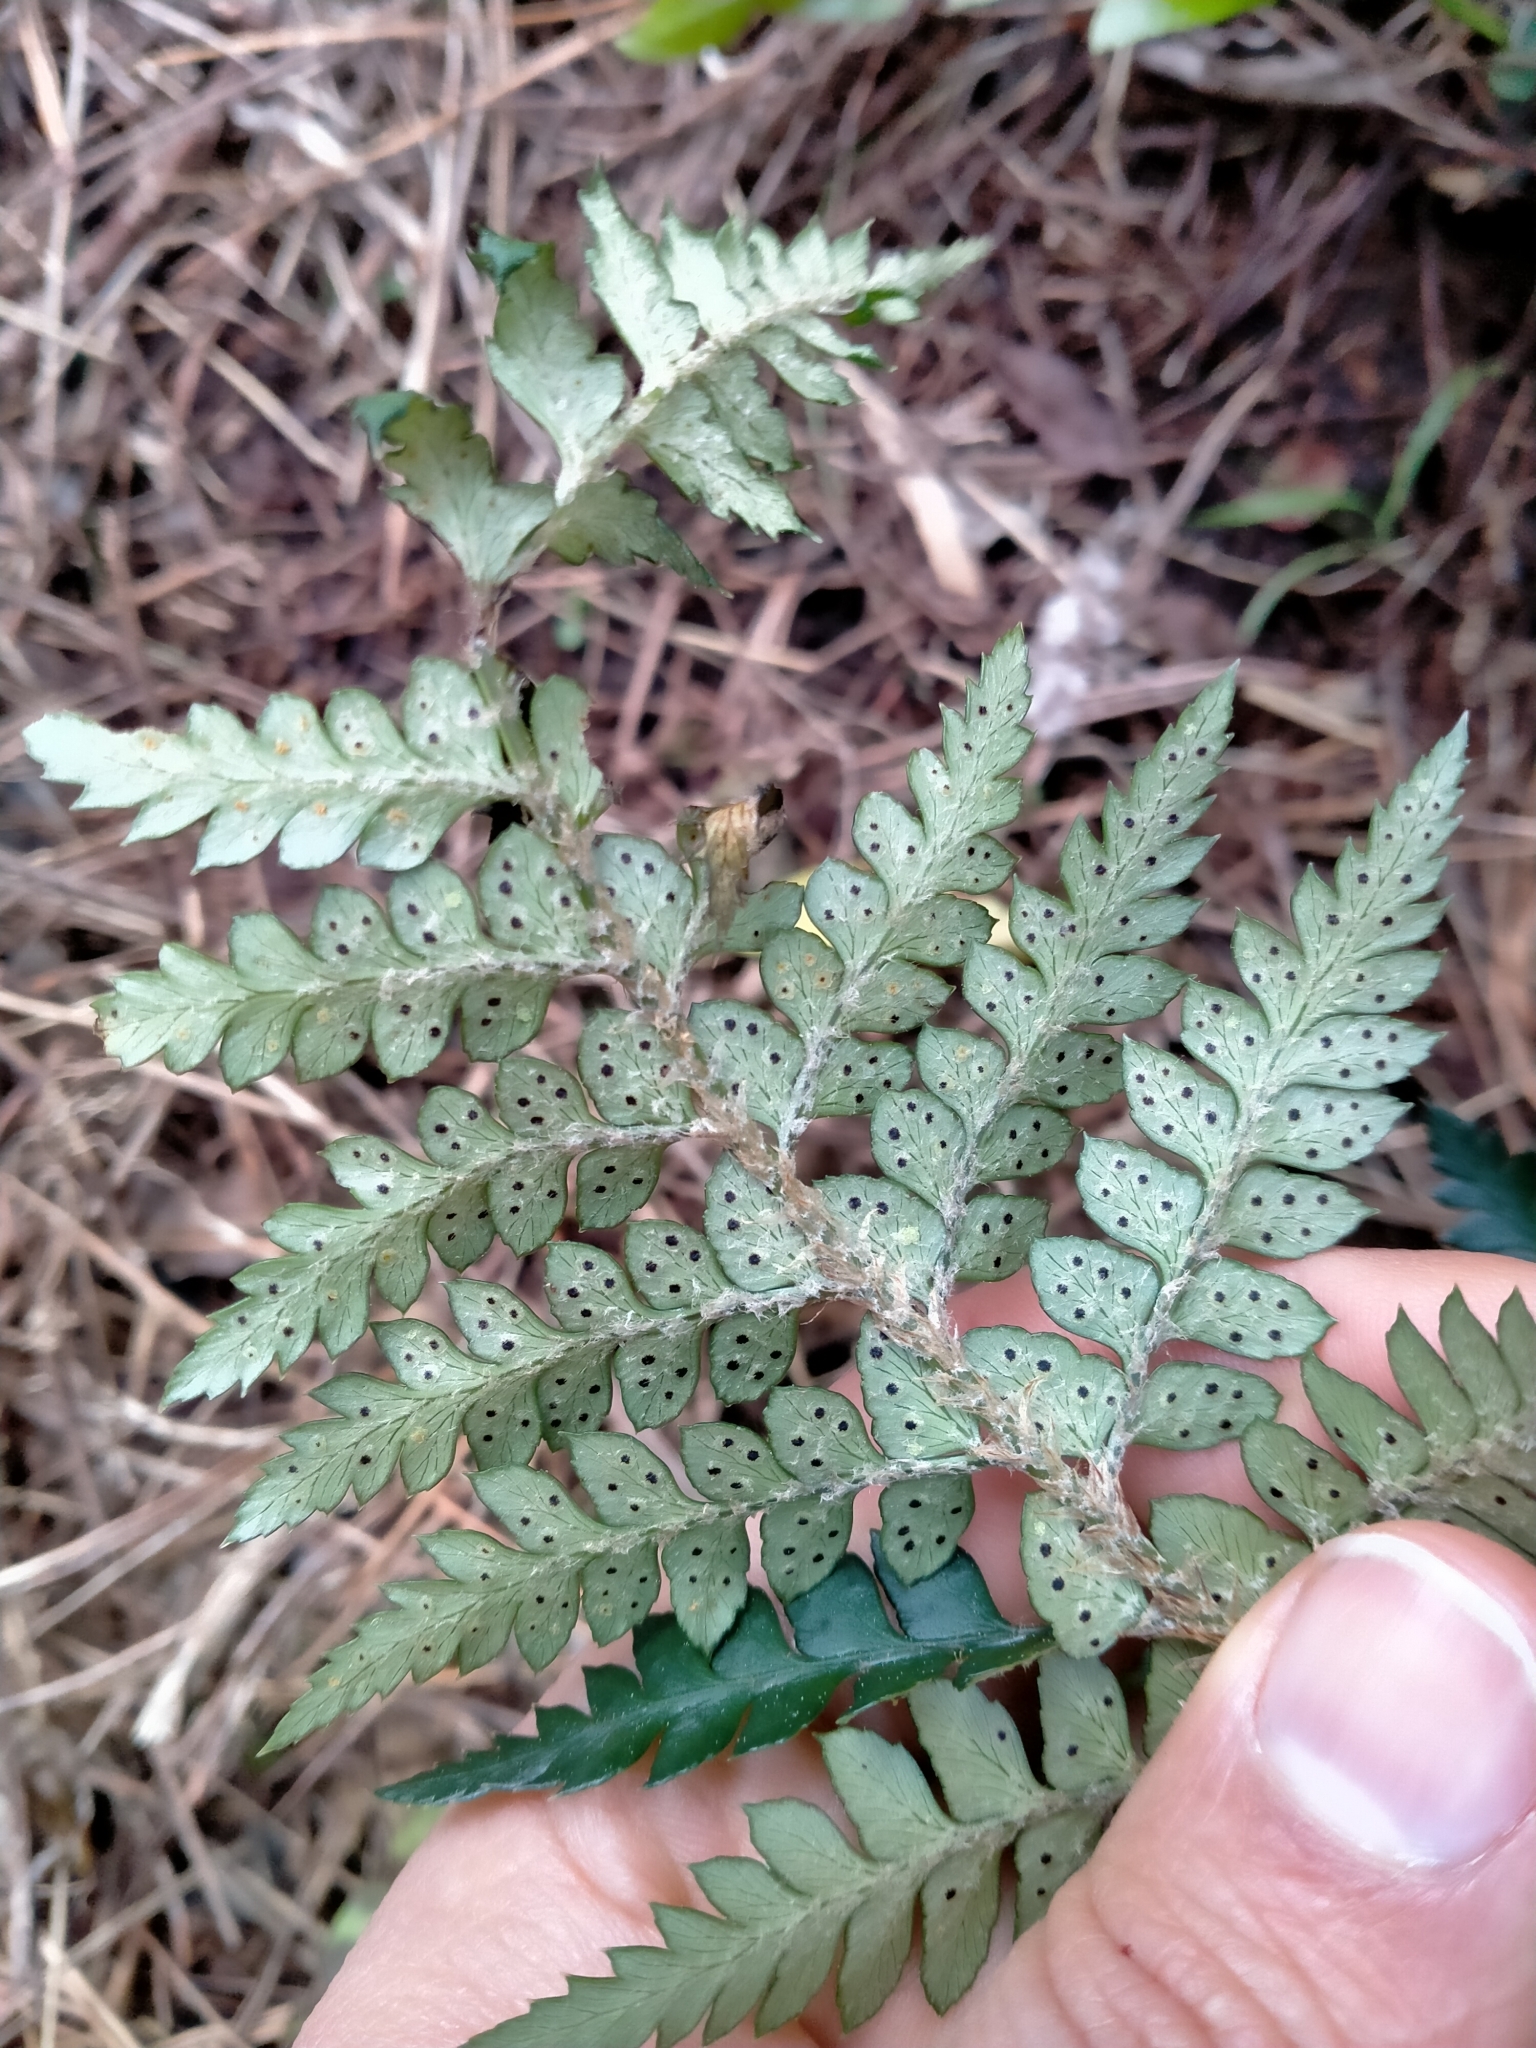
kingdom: Plantae
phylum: Tracheophyta
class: Polypodiopsida
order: Polypodiales
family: Dryopteridaceae
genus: Polystichum
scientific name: Polystichum oculatum
